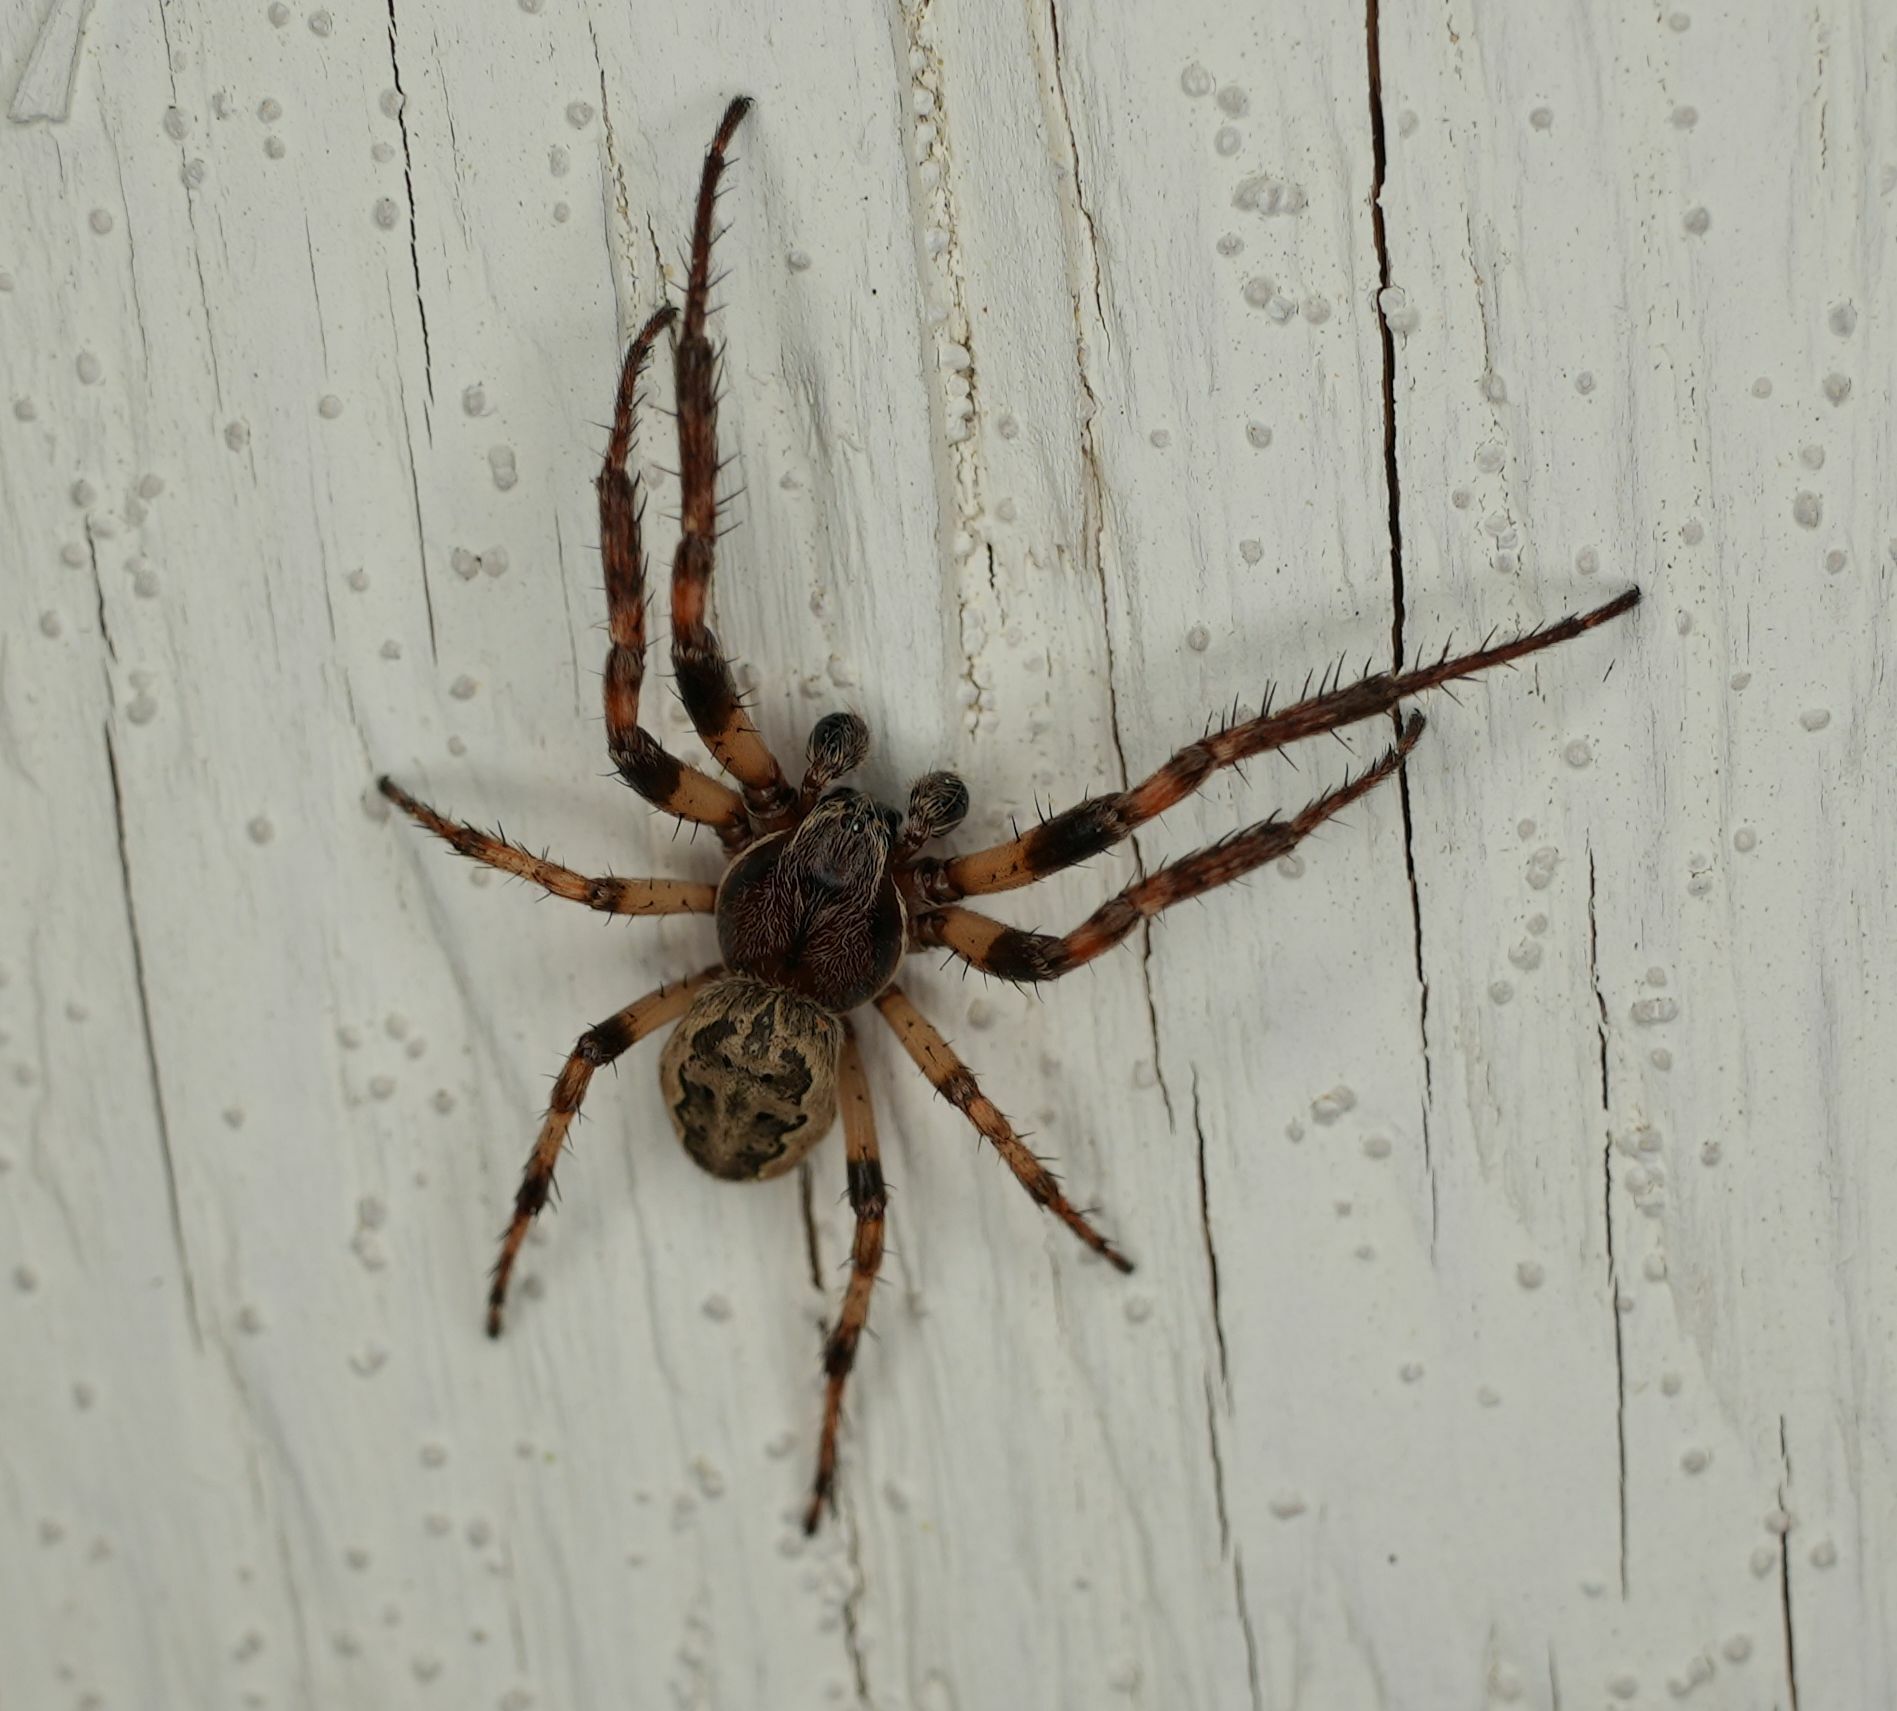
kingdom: Animalia
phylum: Arthropoda
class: Arachnida
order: Araneae
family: Araneidae
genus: Larinioides
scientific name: Larinioides cornutus
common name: Furrow orbweaver
